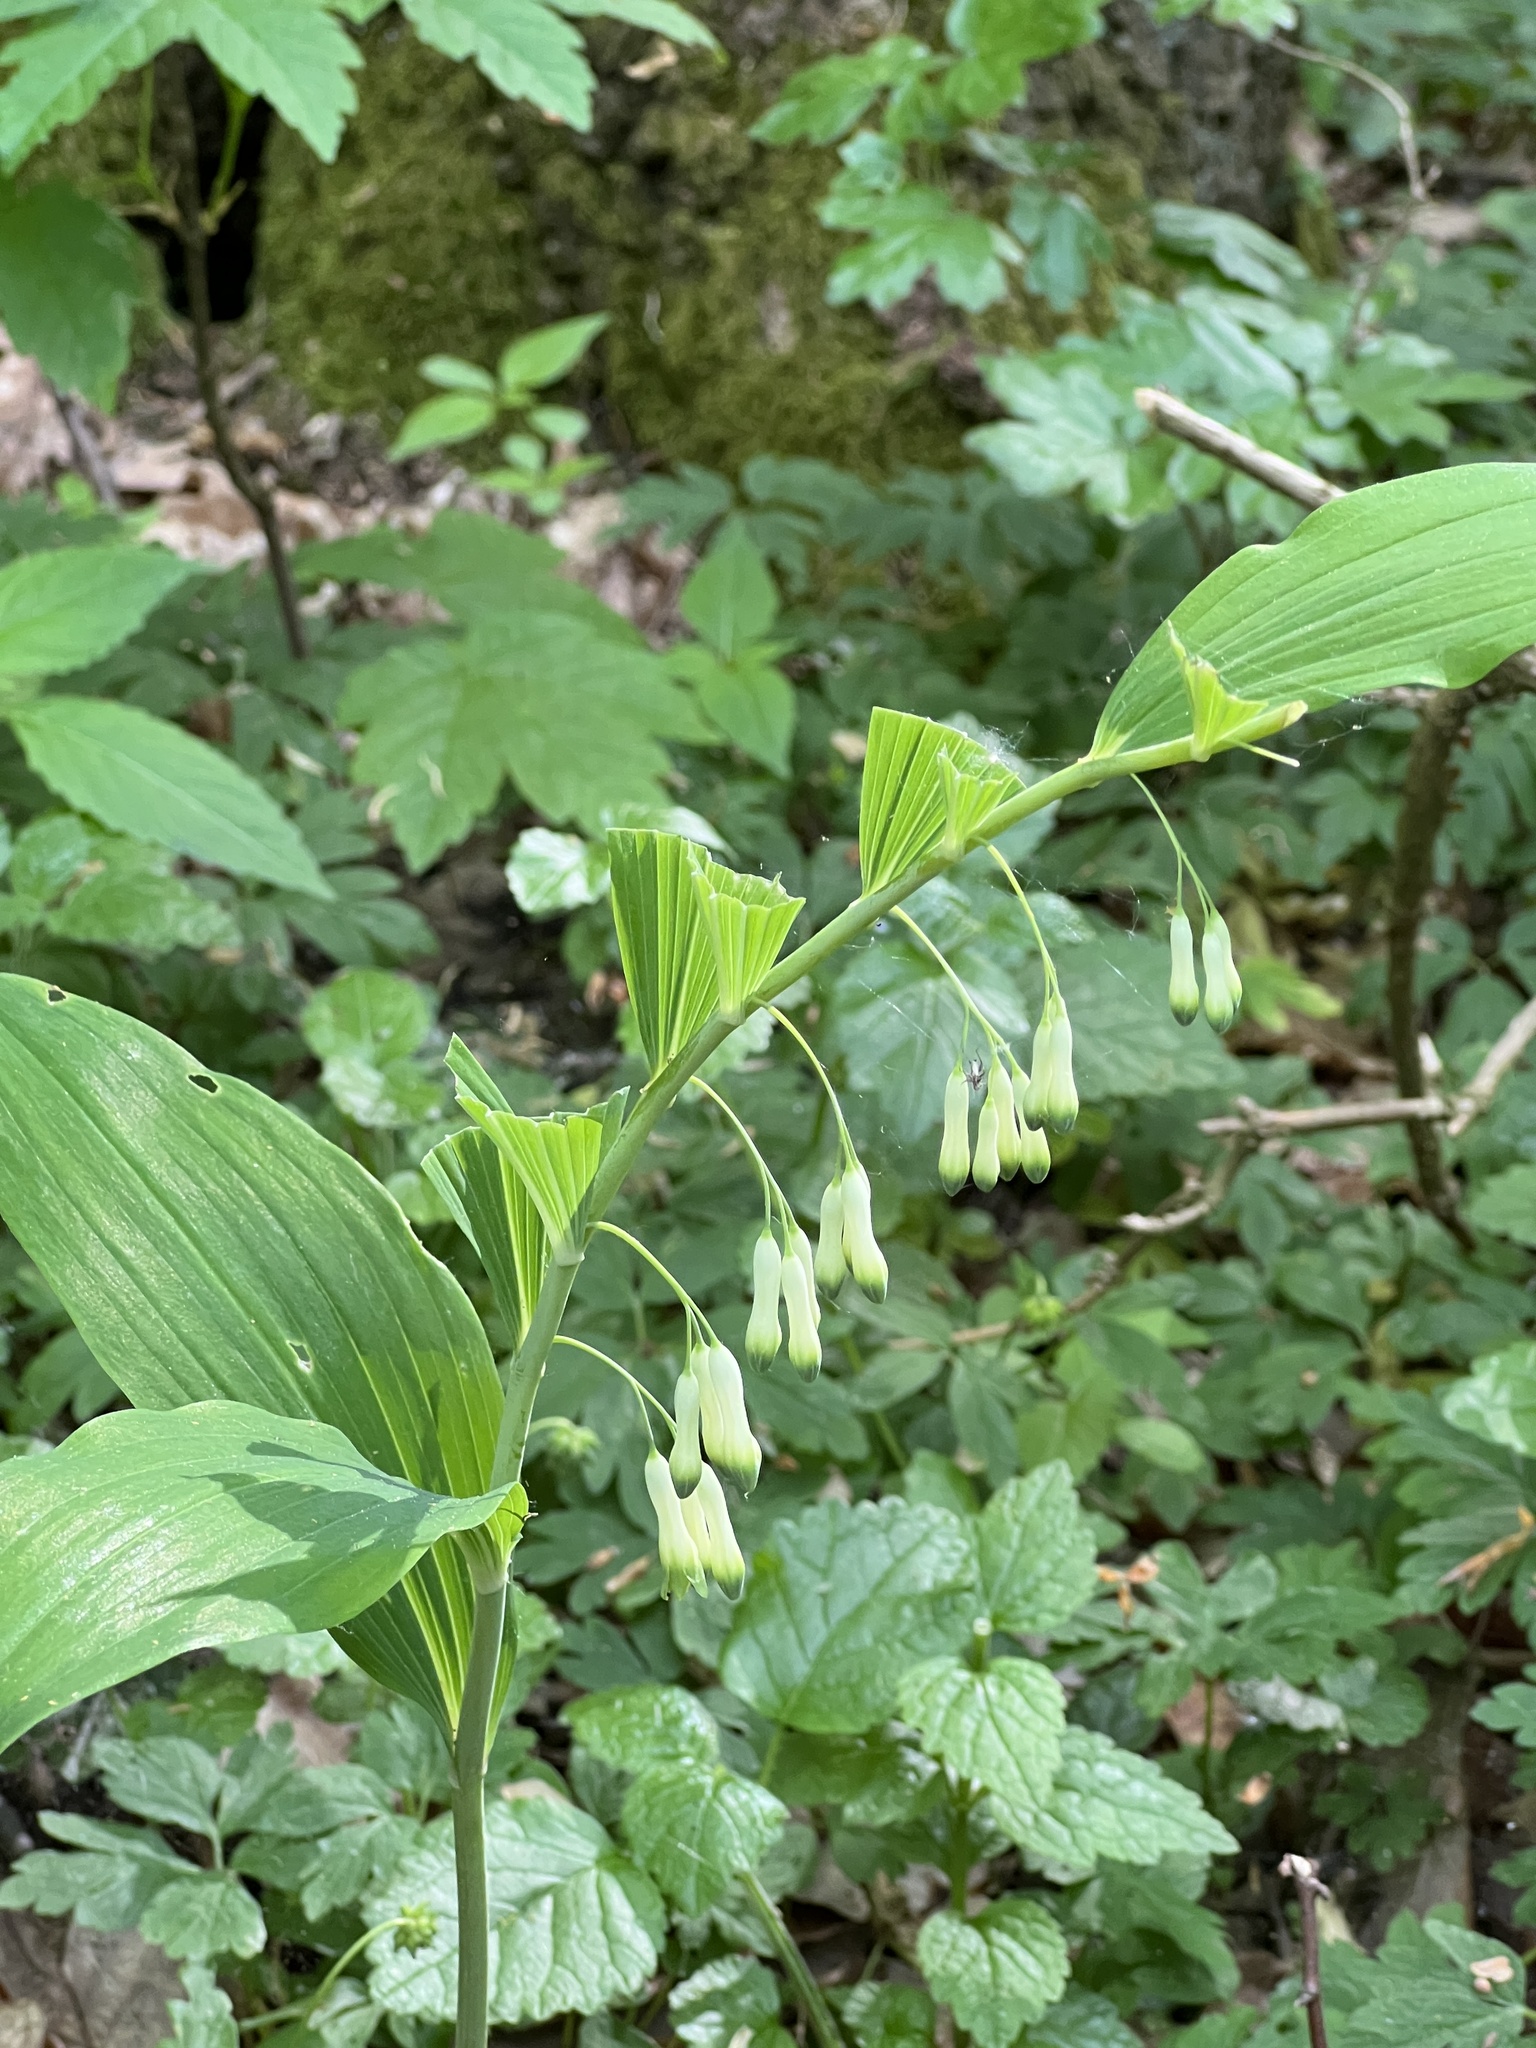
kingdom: Plantae
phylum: Tracheophyta
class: Liliopsida
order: Asparagales
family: Asparagaceae
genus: Polygonatum
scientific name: Polygonatum multiflorum
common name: Solomon's-seal
